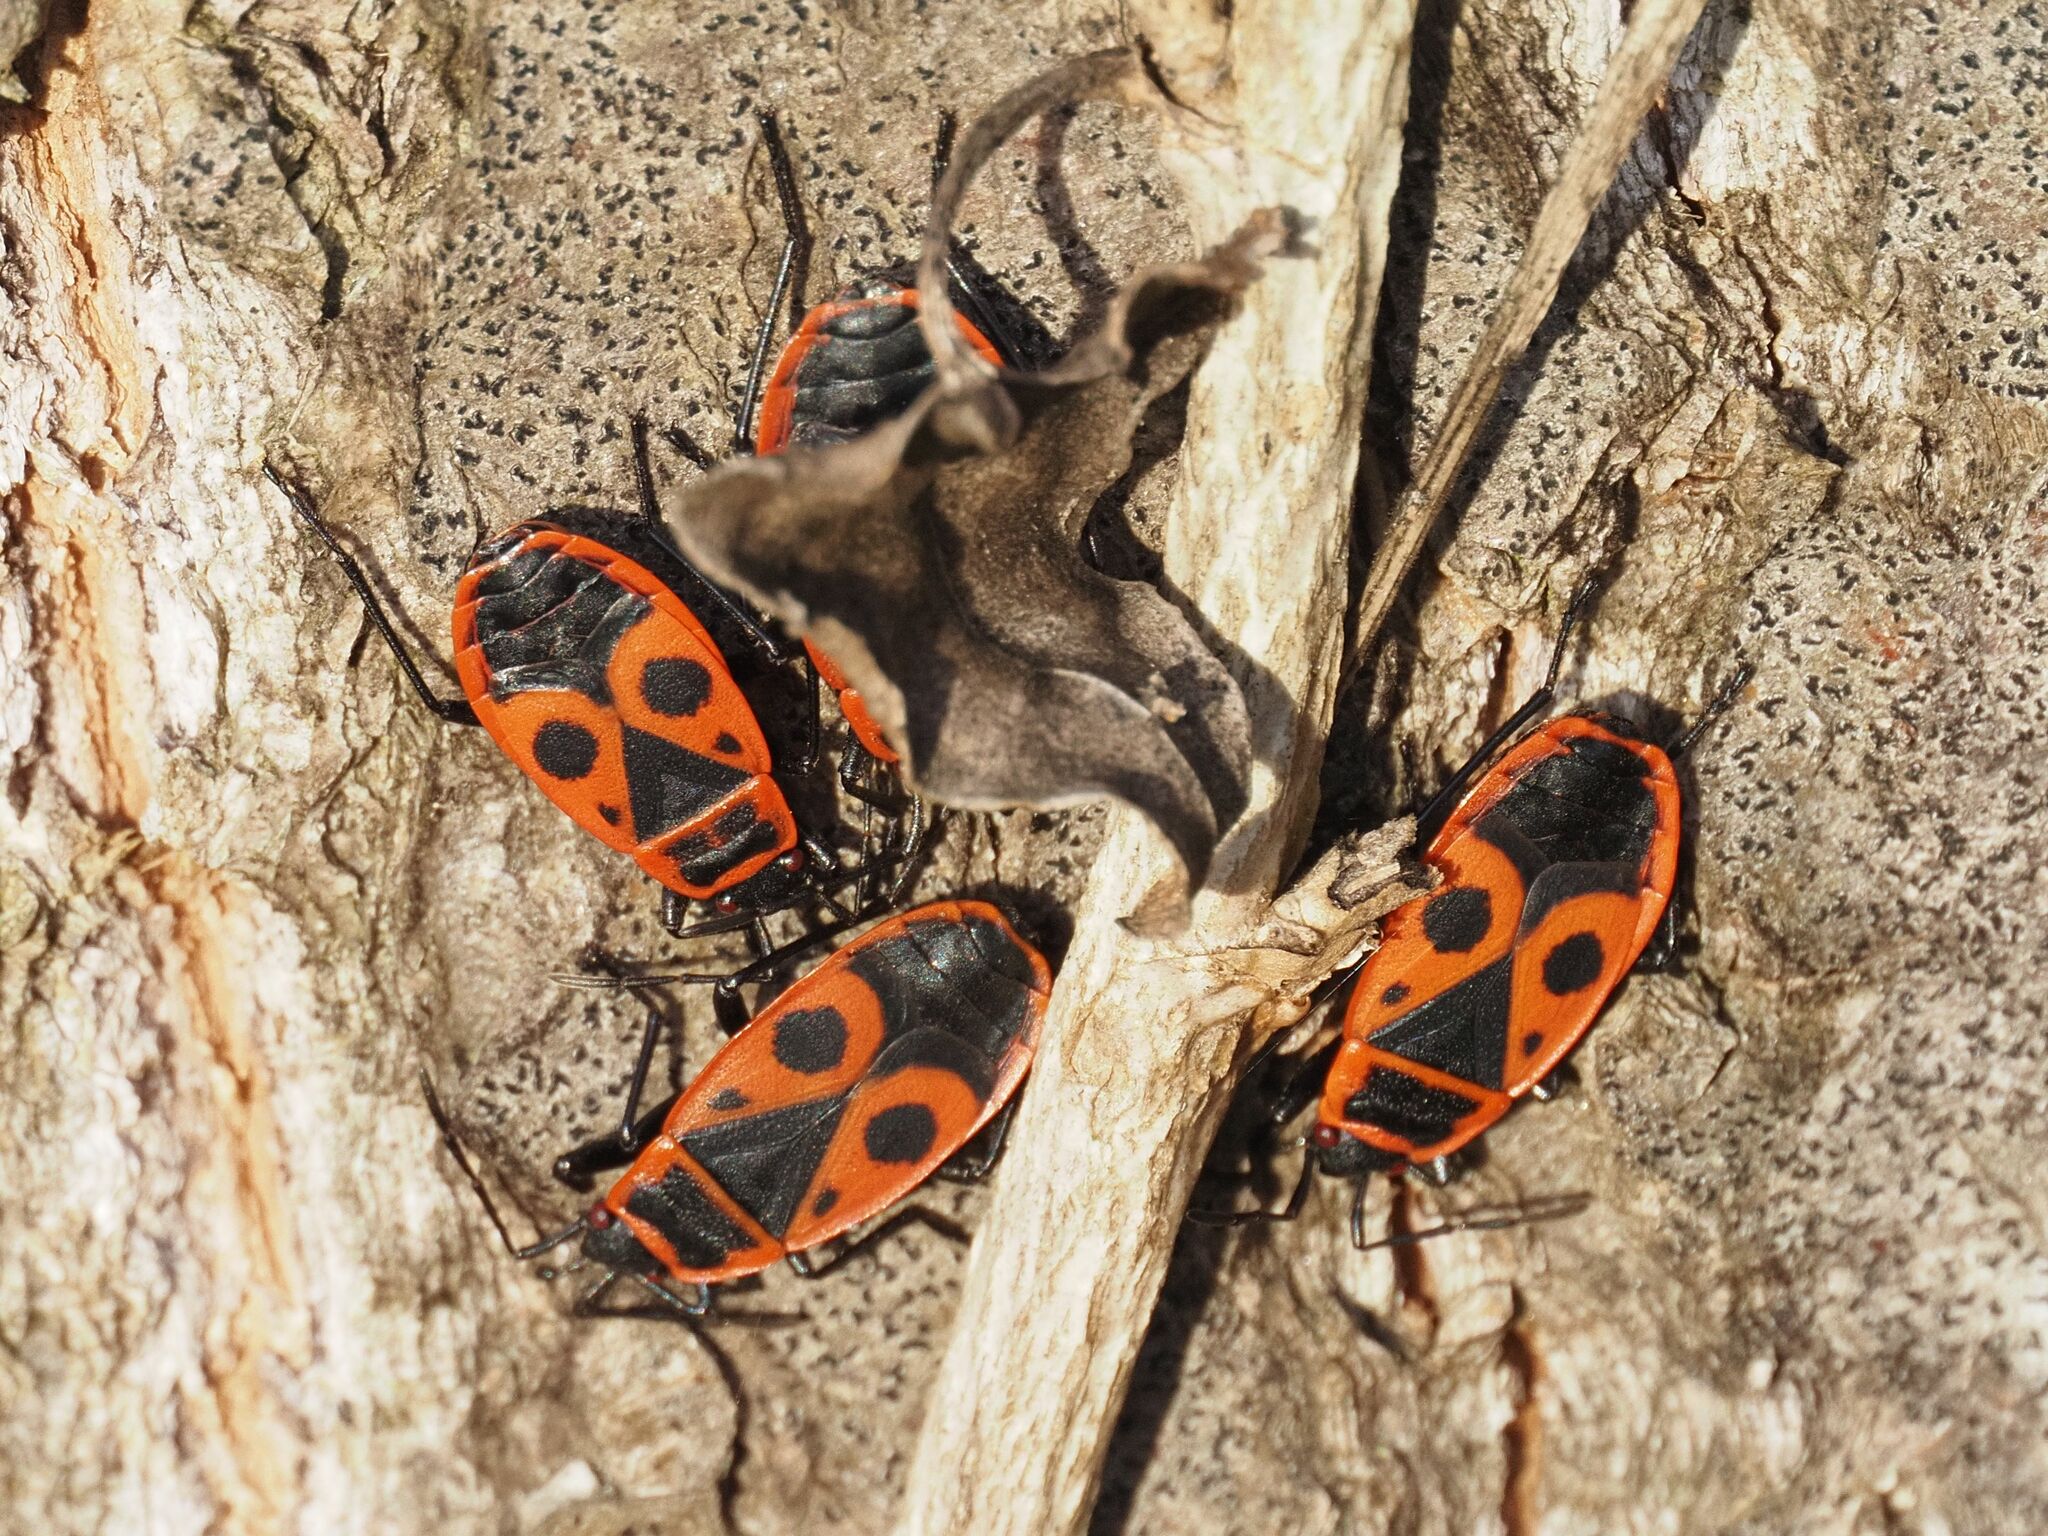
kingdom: Animalia
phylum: Arthropoda
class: Insecta
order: Hemiptera
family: Pyrrhocoridae
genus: Pyrrhocoris
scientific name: Pyrrhocoris apterus
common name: Firebug
